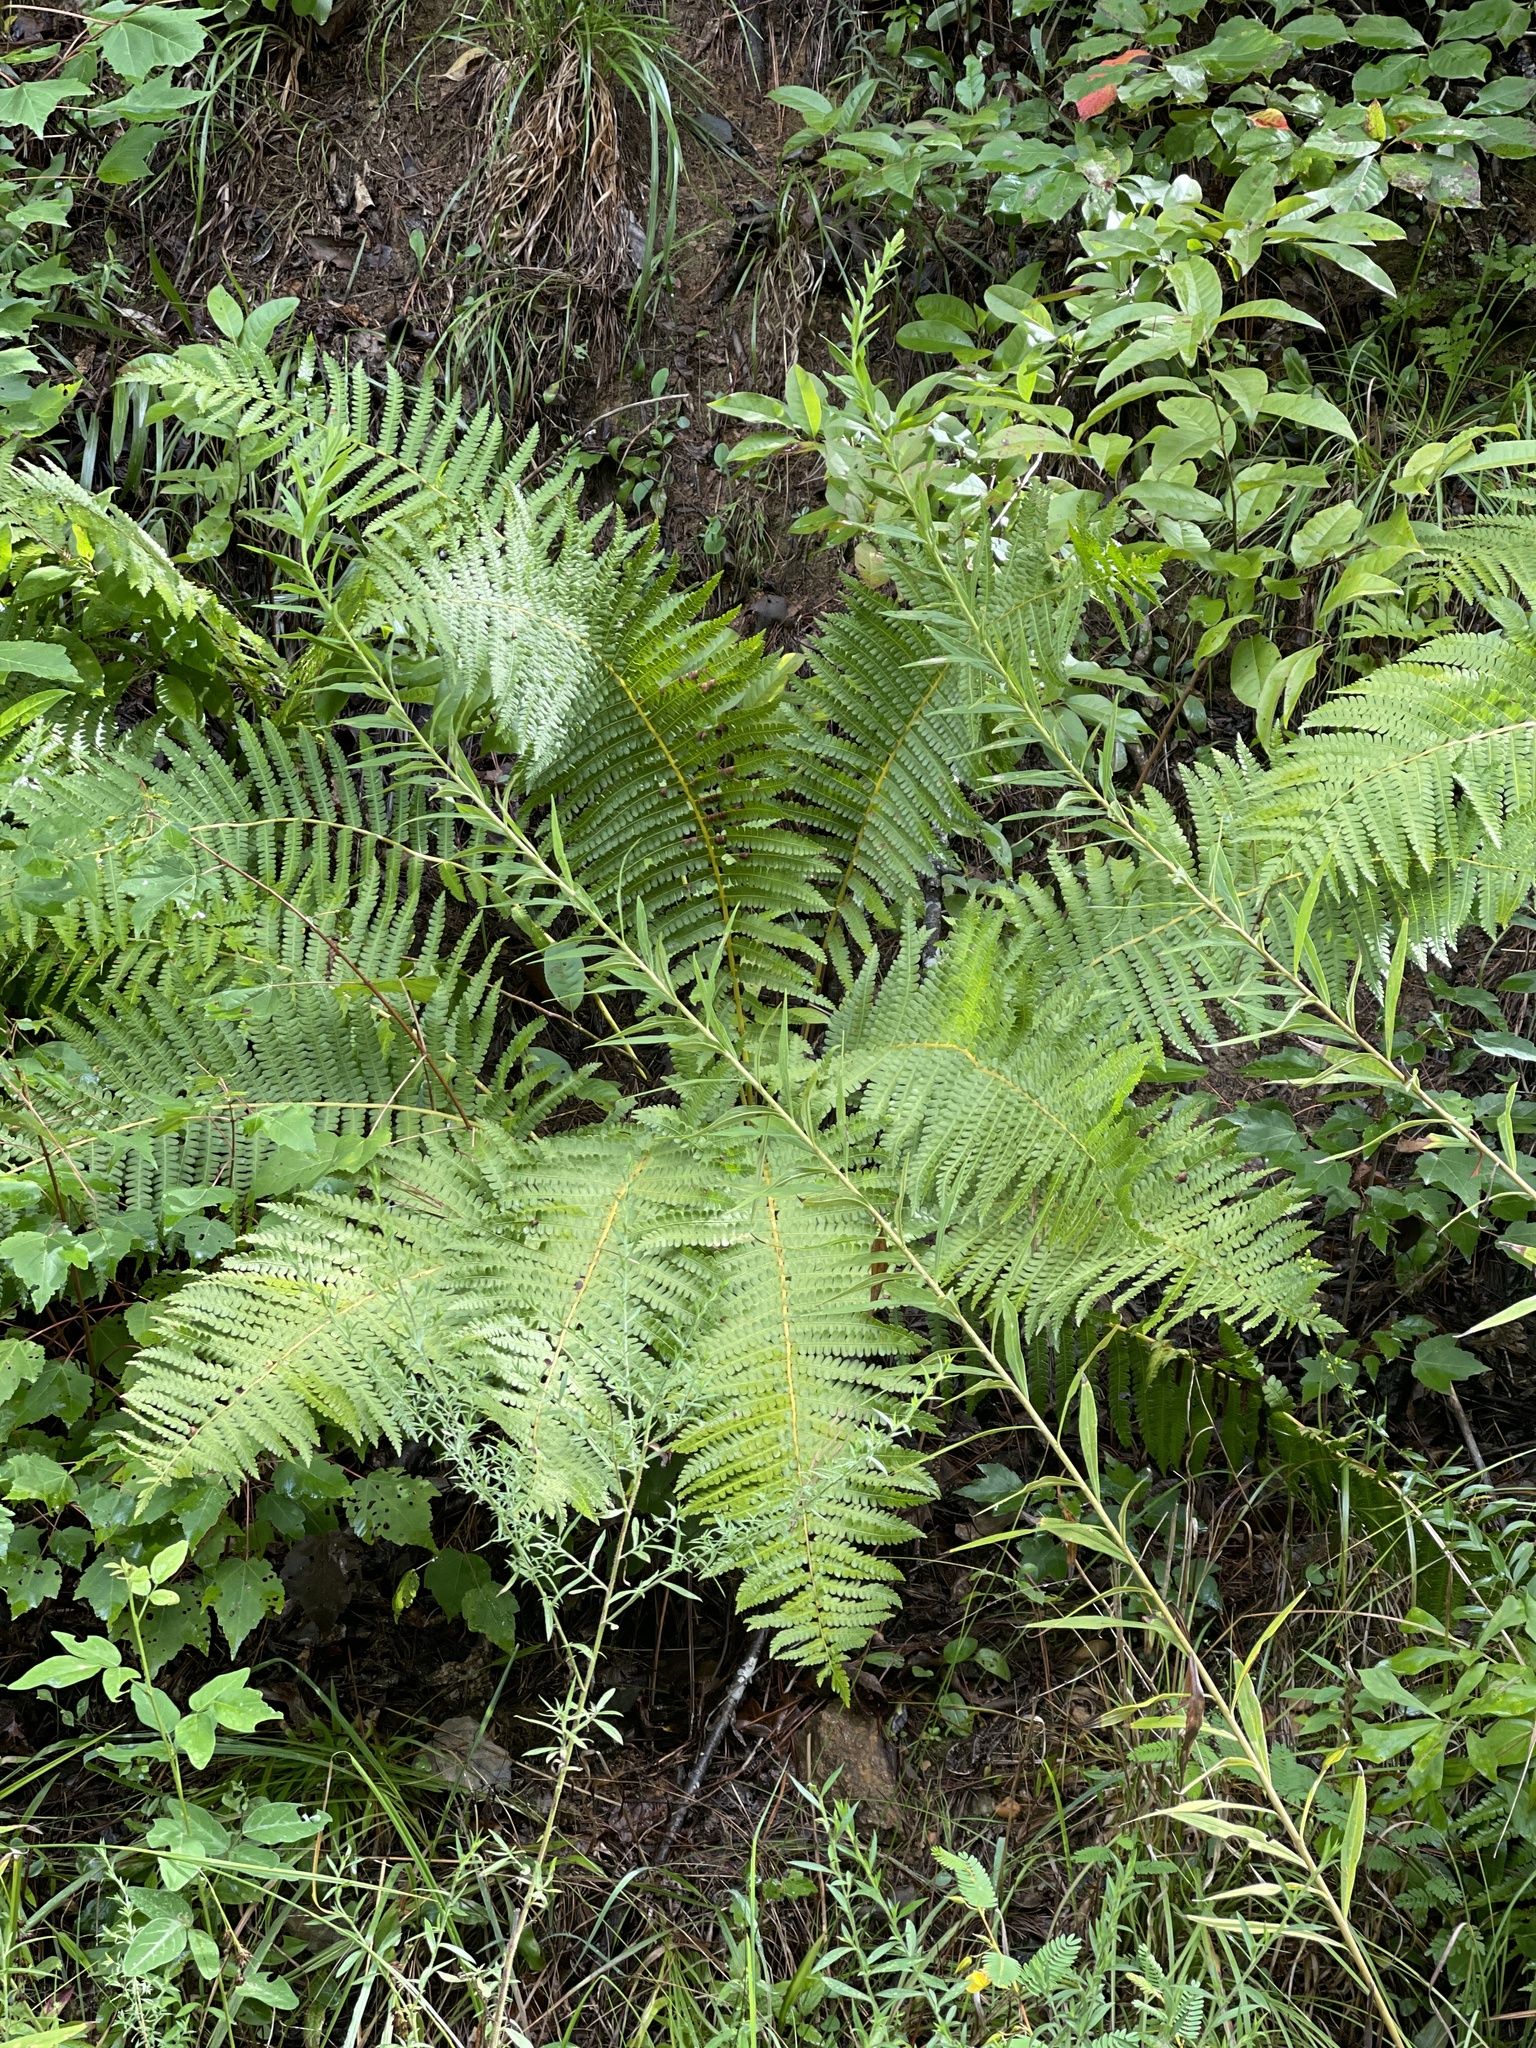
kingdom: Plantae
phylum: Tracheophyta
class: Polypodiopsida
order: Osmundales
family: Osmundaceae
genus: Osmundastrum
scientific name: Osmundastrum cinnamomeum
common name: Cinnamon fern
